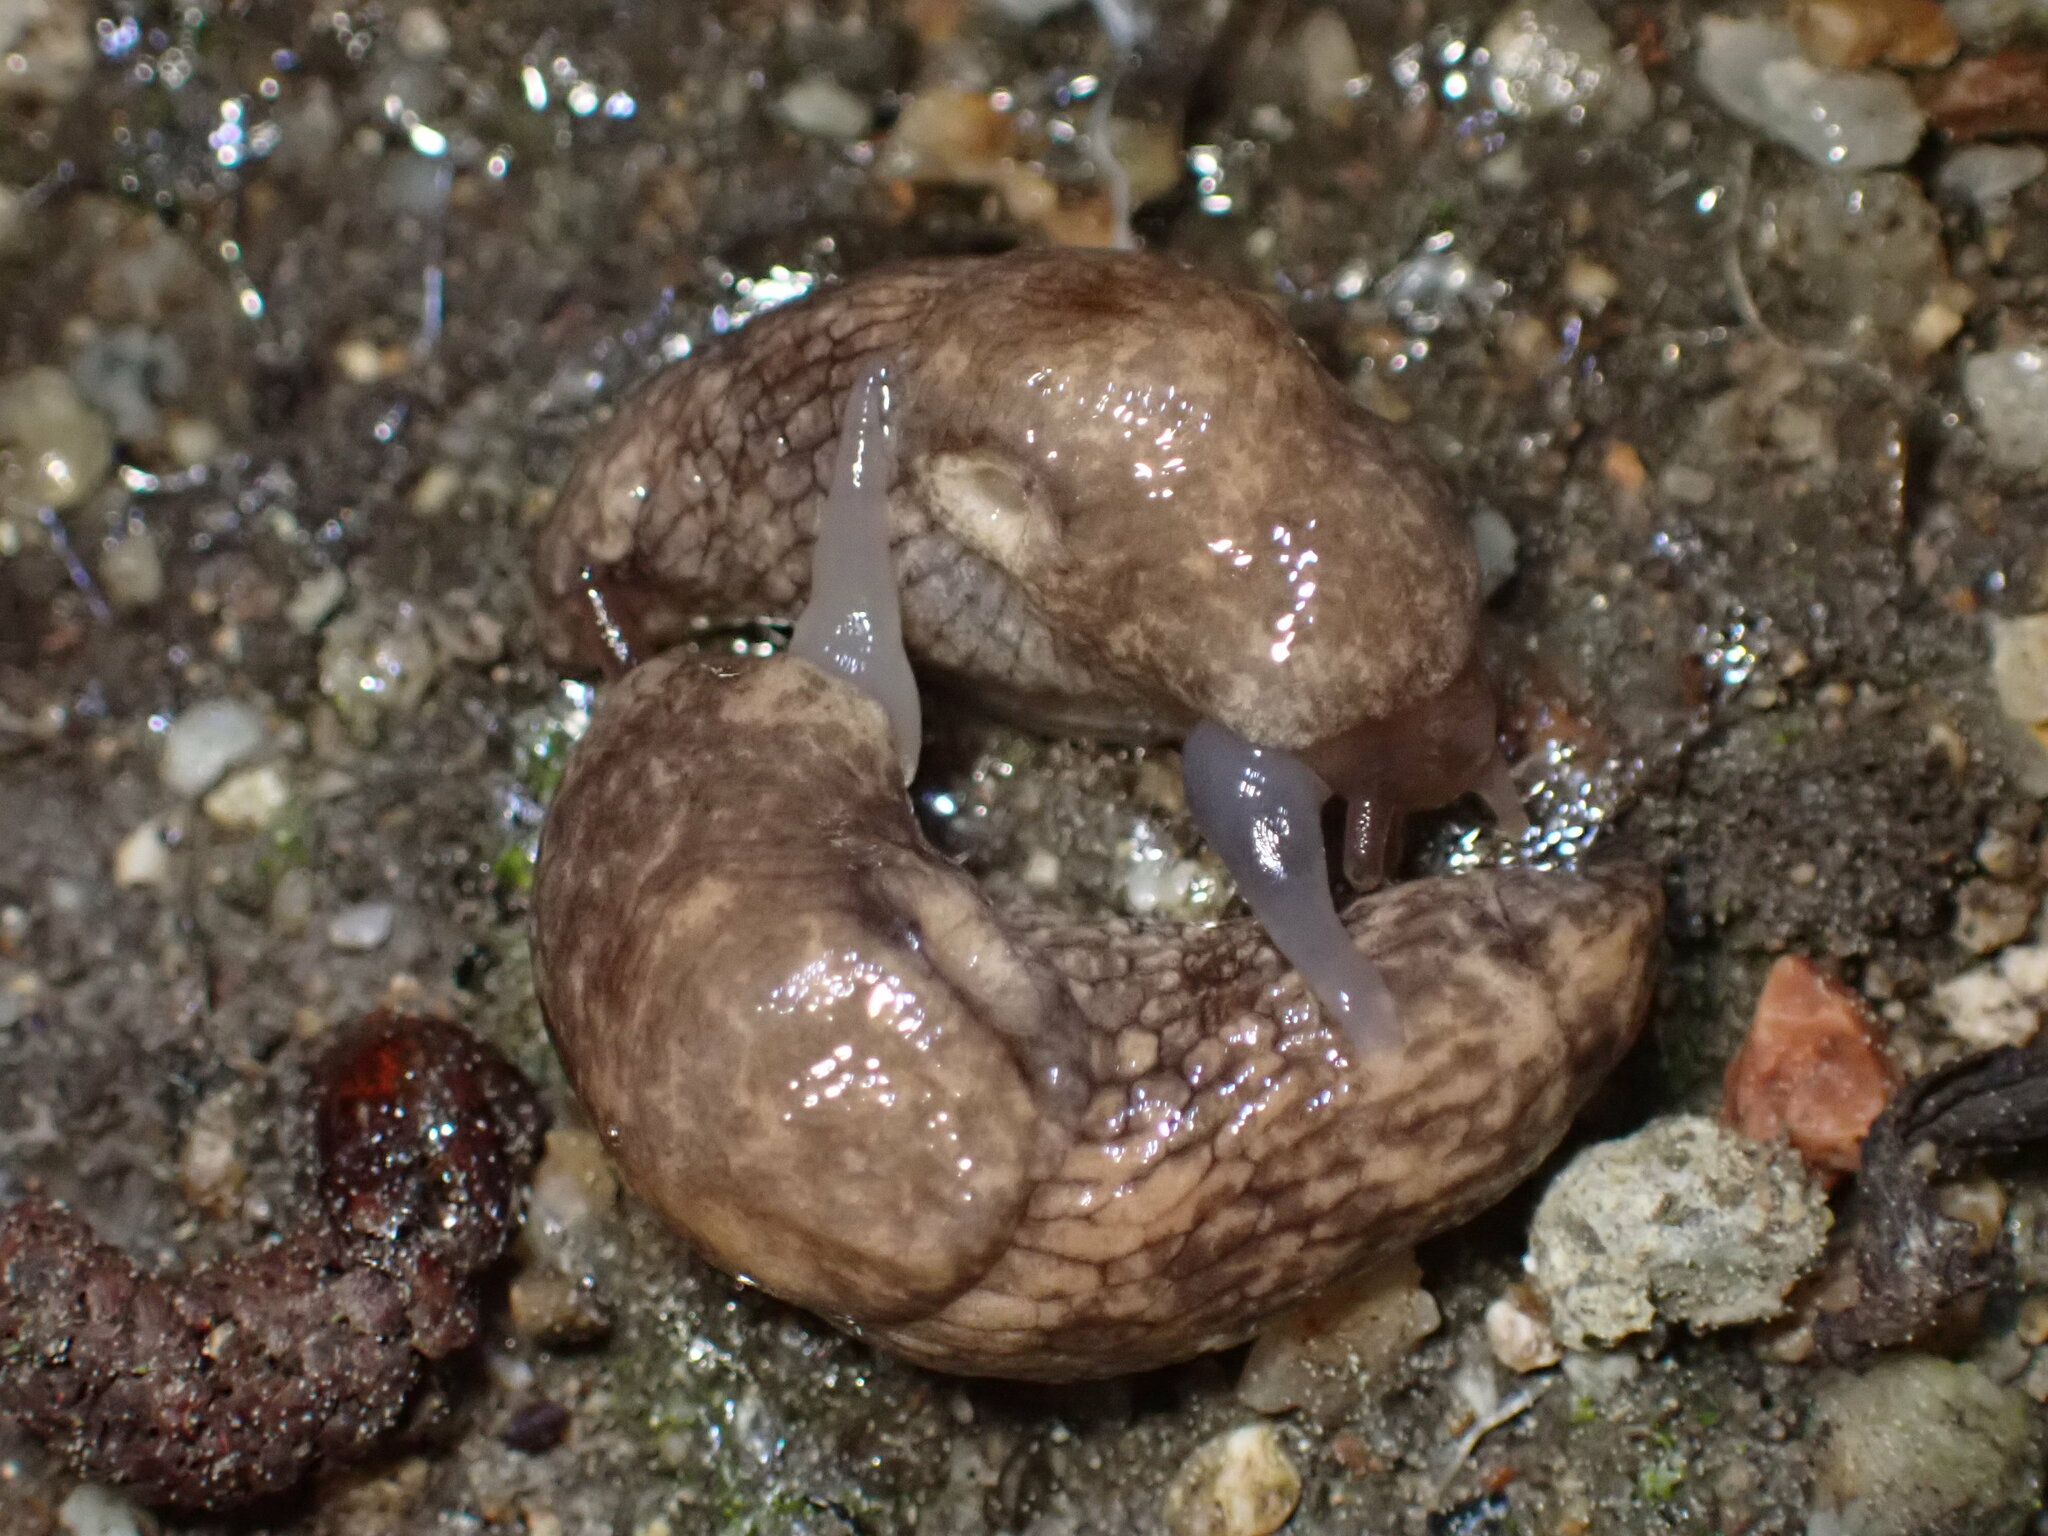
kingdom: Animalia
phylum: Mollusca
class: Gastropoda
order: Stylommatophora
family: Agriolimacidae
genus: Deroceras
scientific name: Deroceras reticulatum
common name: Gray field slug
